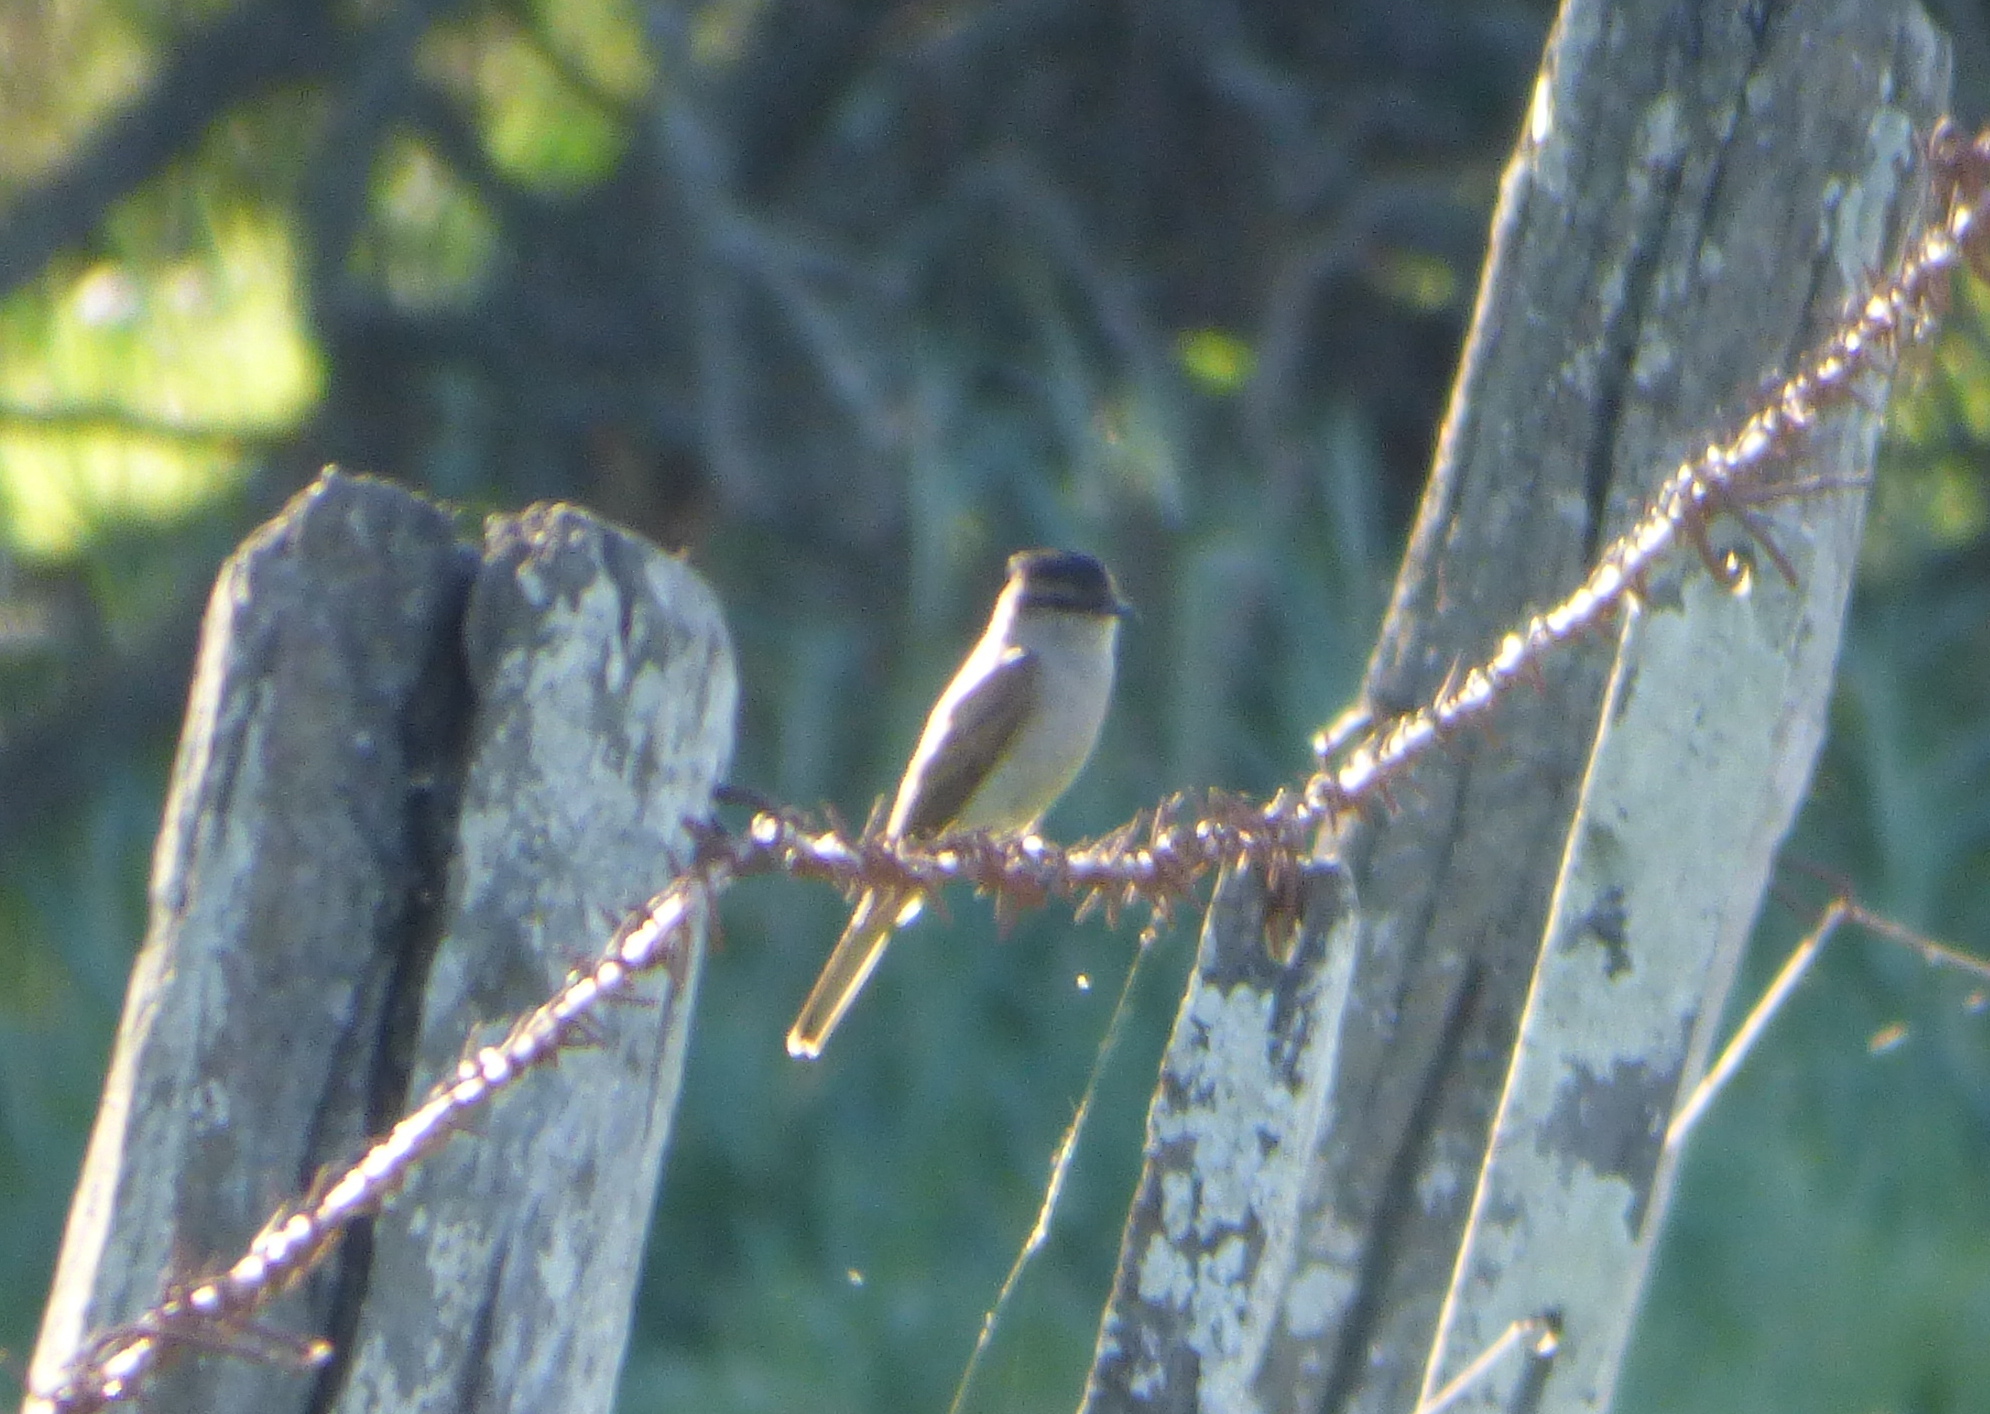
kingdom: Animalia
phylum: Chordata
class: Aves
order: Passeriformes
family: Tyrannidae
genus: Empidonomus
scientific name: Empidonomus aurantioatrocristatus
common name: Crowned slaty flycatcher
